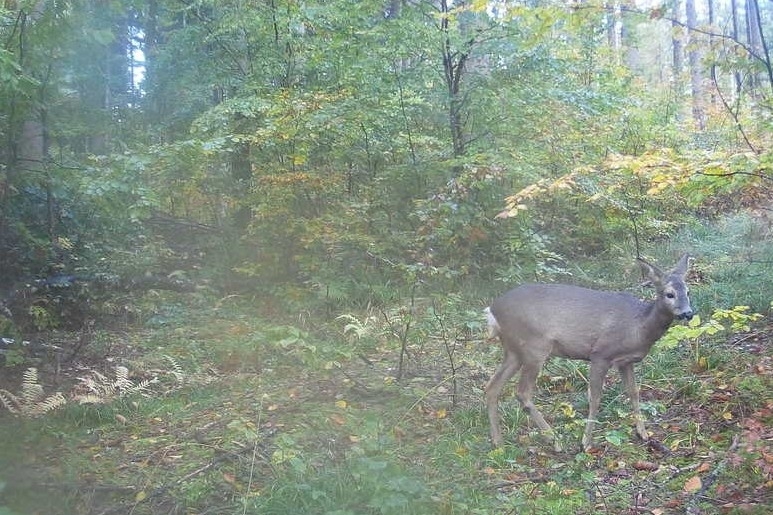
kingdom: Animalia
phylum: Chordata
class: Mammalia
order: Artiodactyla
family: Cervidae
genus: Capreolus
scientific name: Capreolus capreolus
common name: Western roe deer
